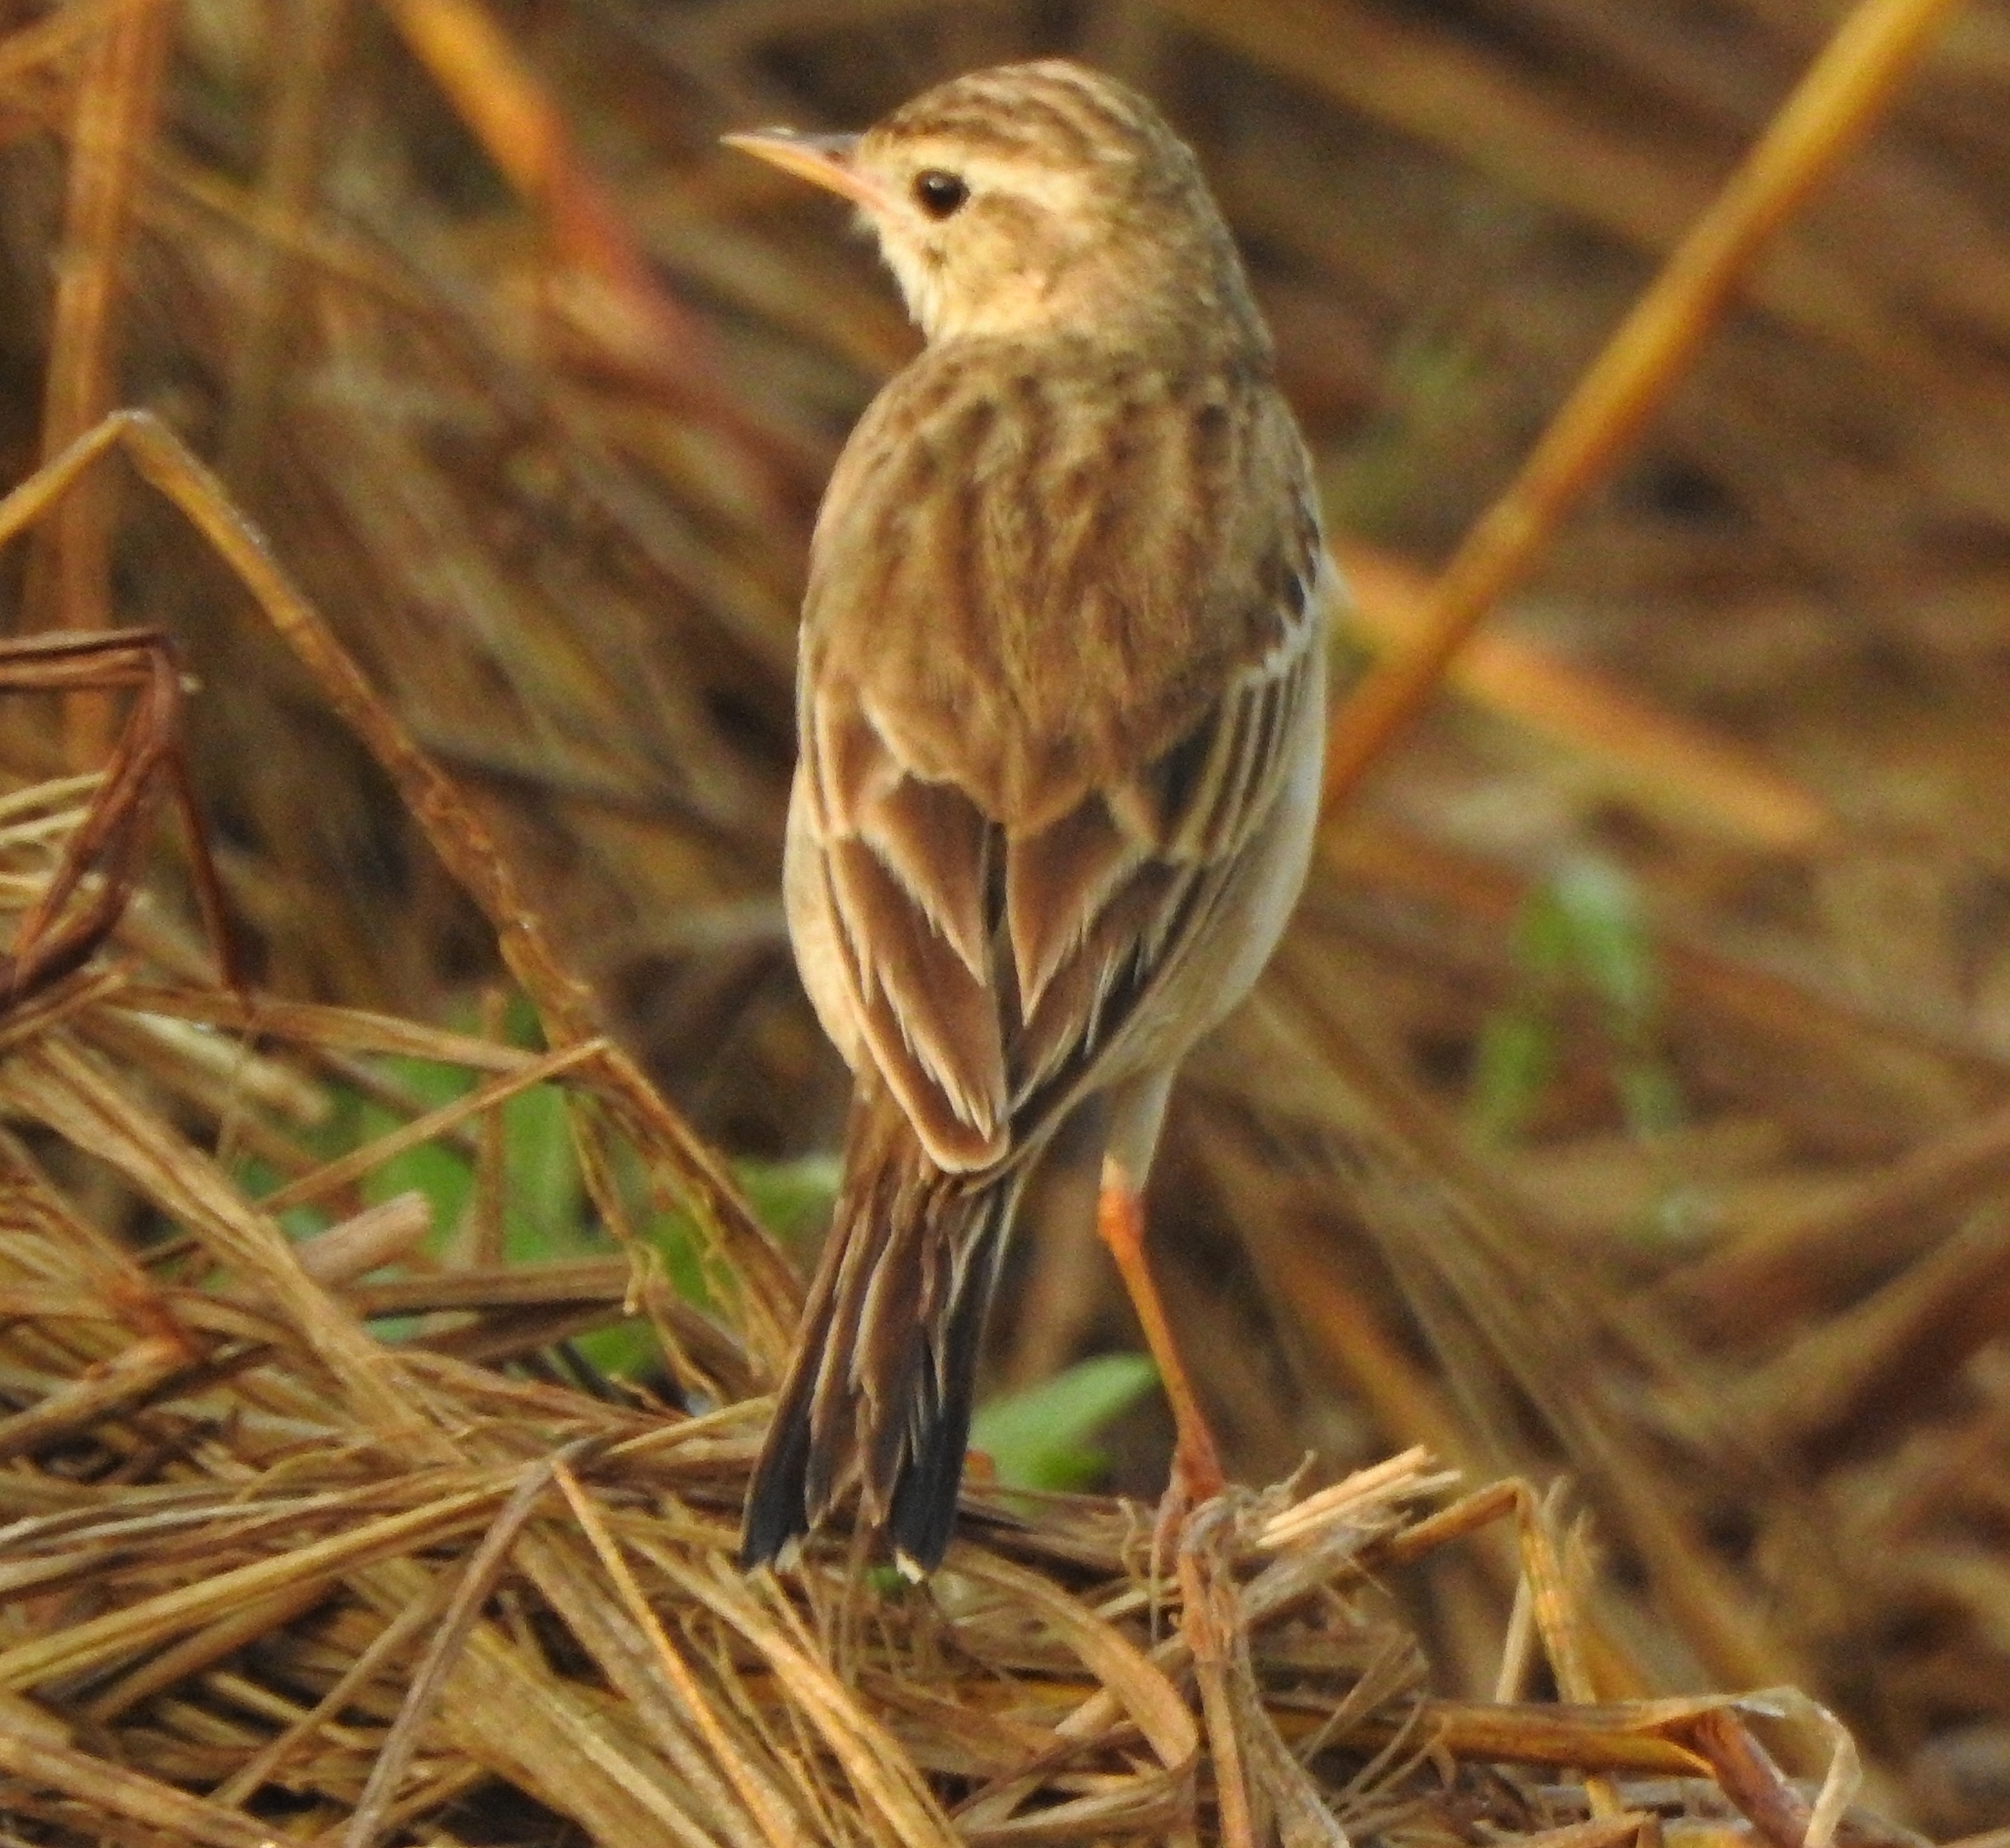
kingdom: Animalia
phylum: Chordata
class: Aves
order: Passeriformes
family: Motacillidae
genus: Anthus
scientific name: Anthus rufulus
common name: Paddyfield pipit
